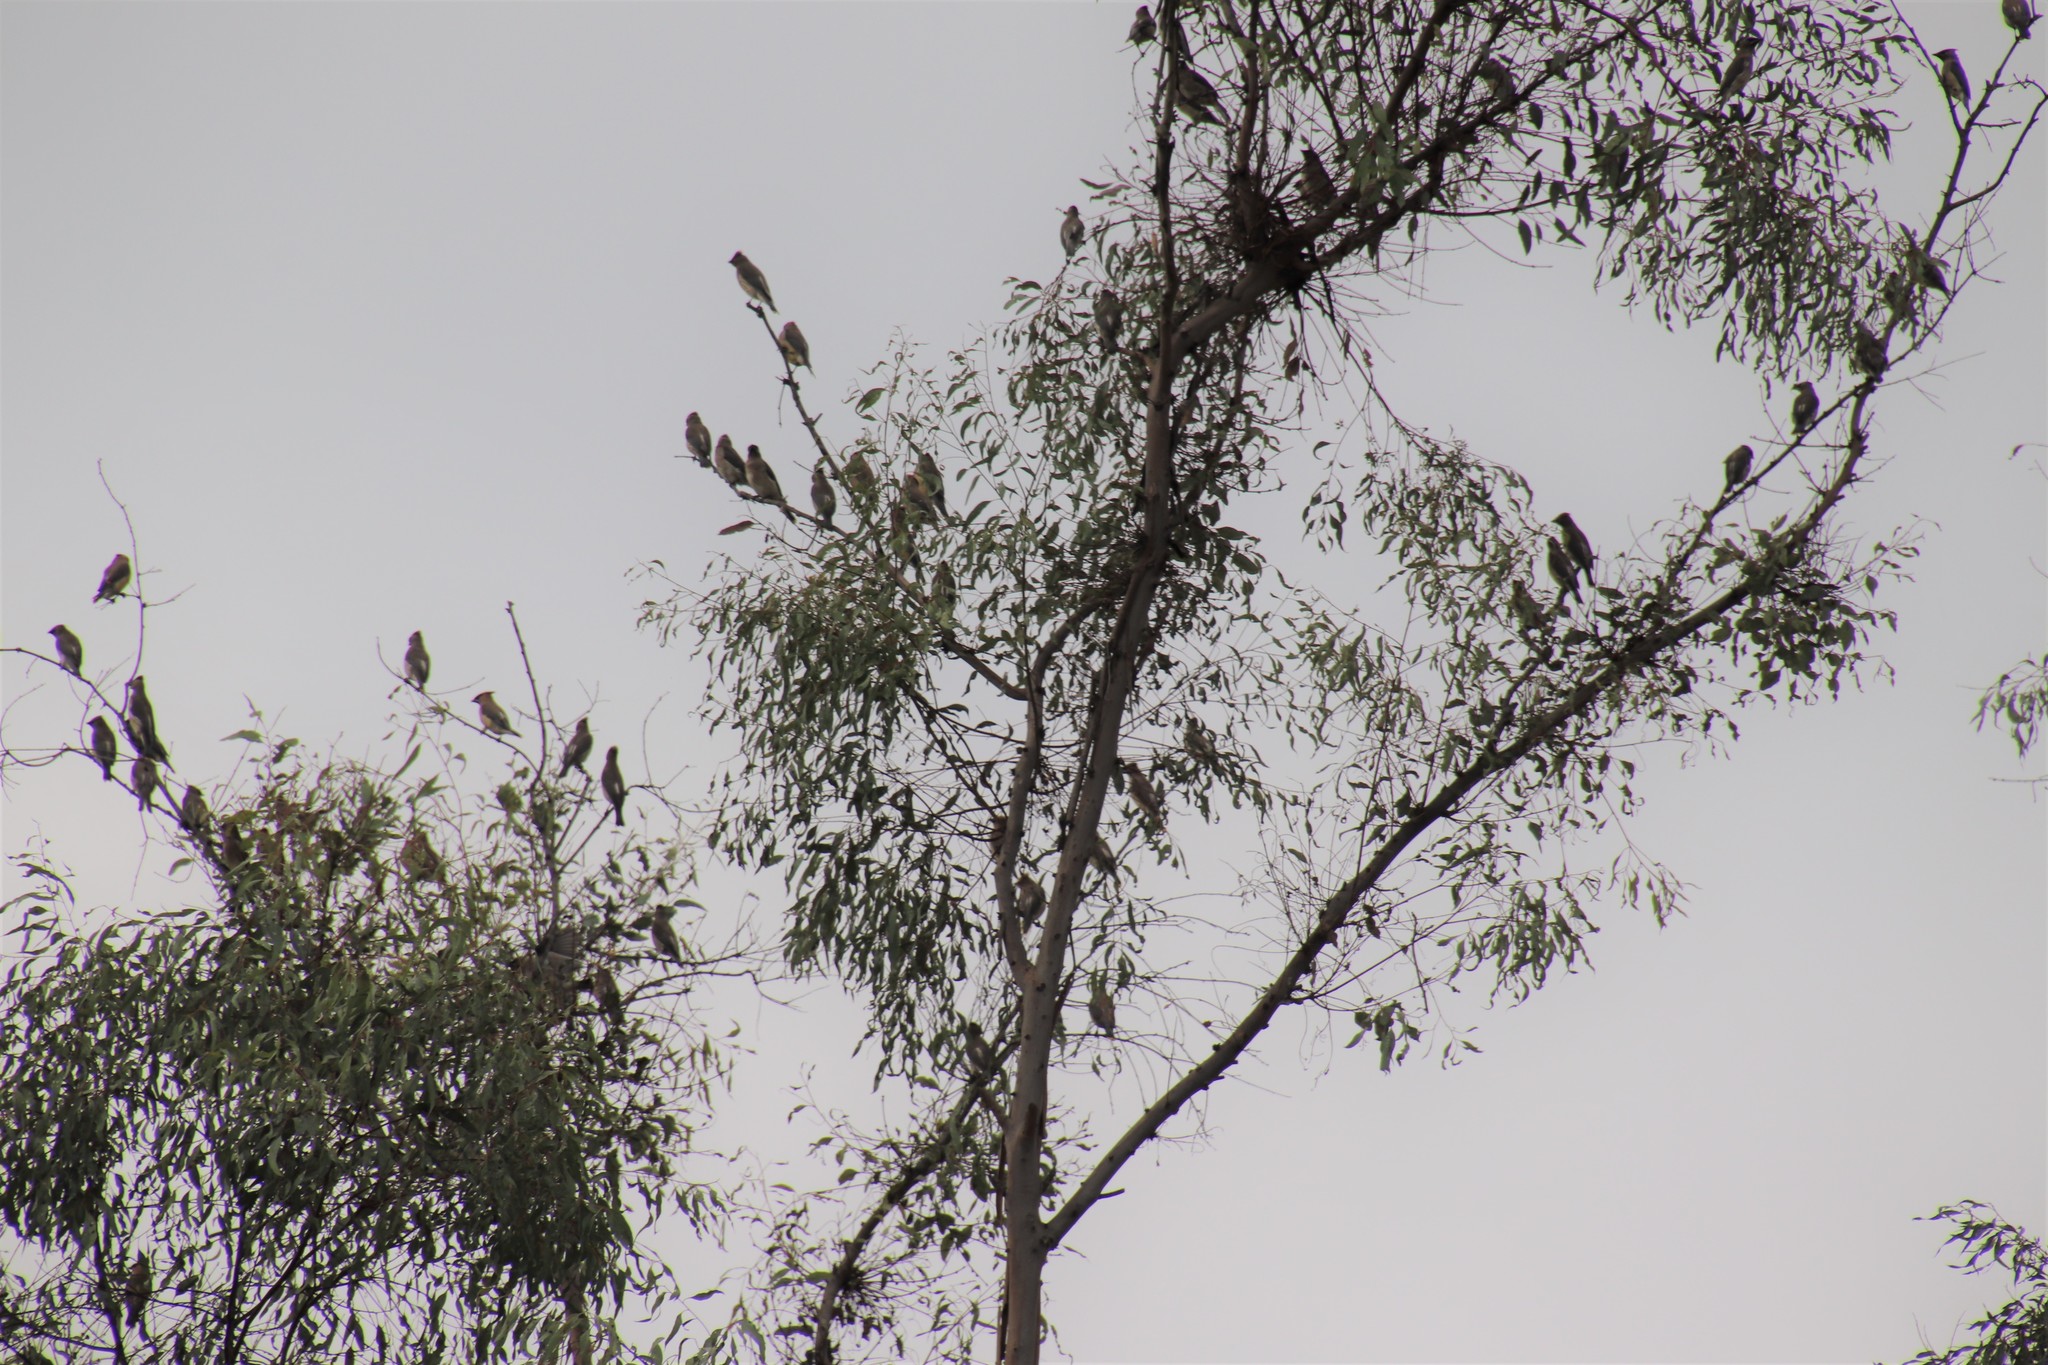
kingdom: Animalia
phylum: Chordata
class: Aves
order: Passeriformes
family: Bombycillidae
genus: Bombycilla
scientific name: Bombycilla cedrorum
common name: Cedar waxwing
